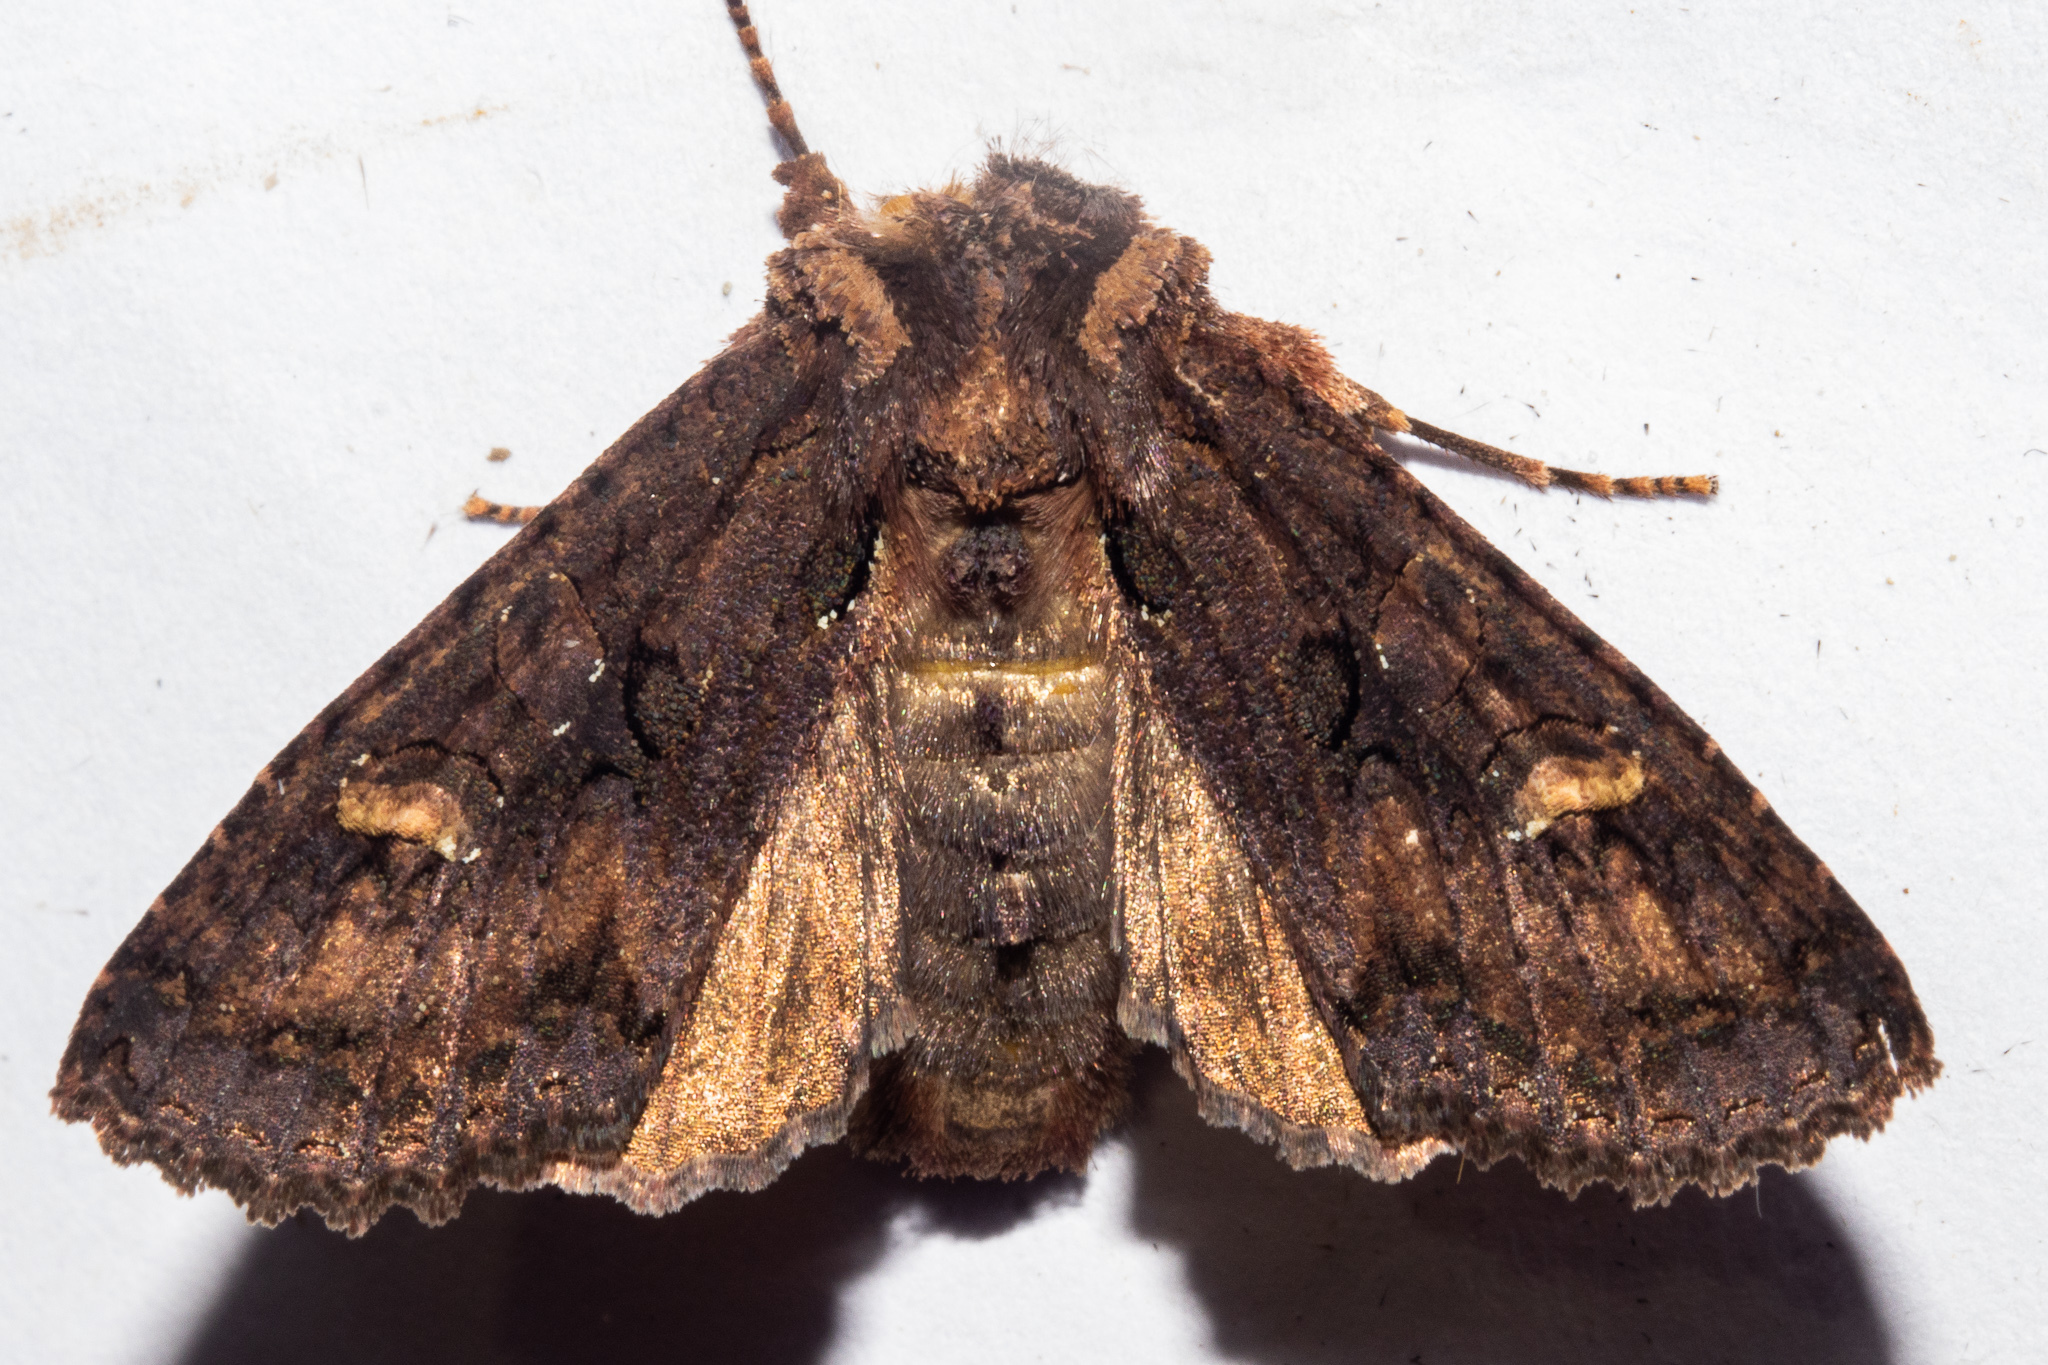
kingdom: Animalia
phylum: Arthropoda
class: Insecta
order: Lepidoptera
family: Noctuidae
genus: Meterana
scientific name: Meterana dotata
